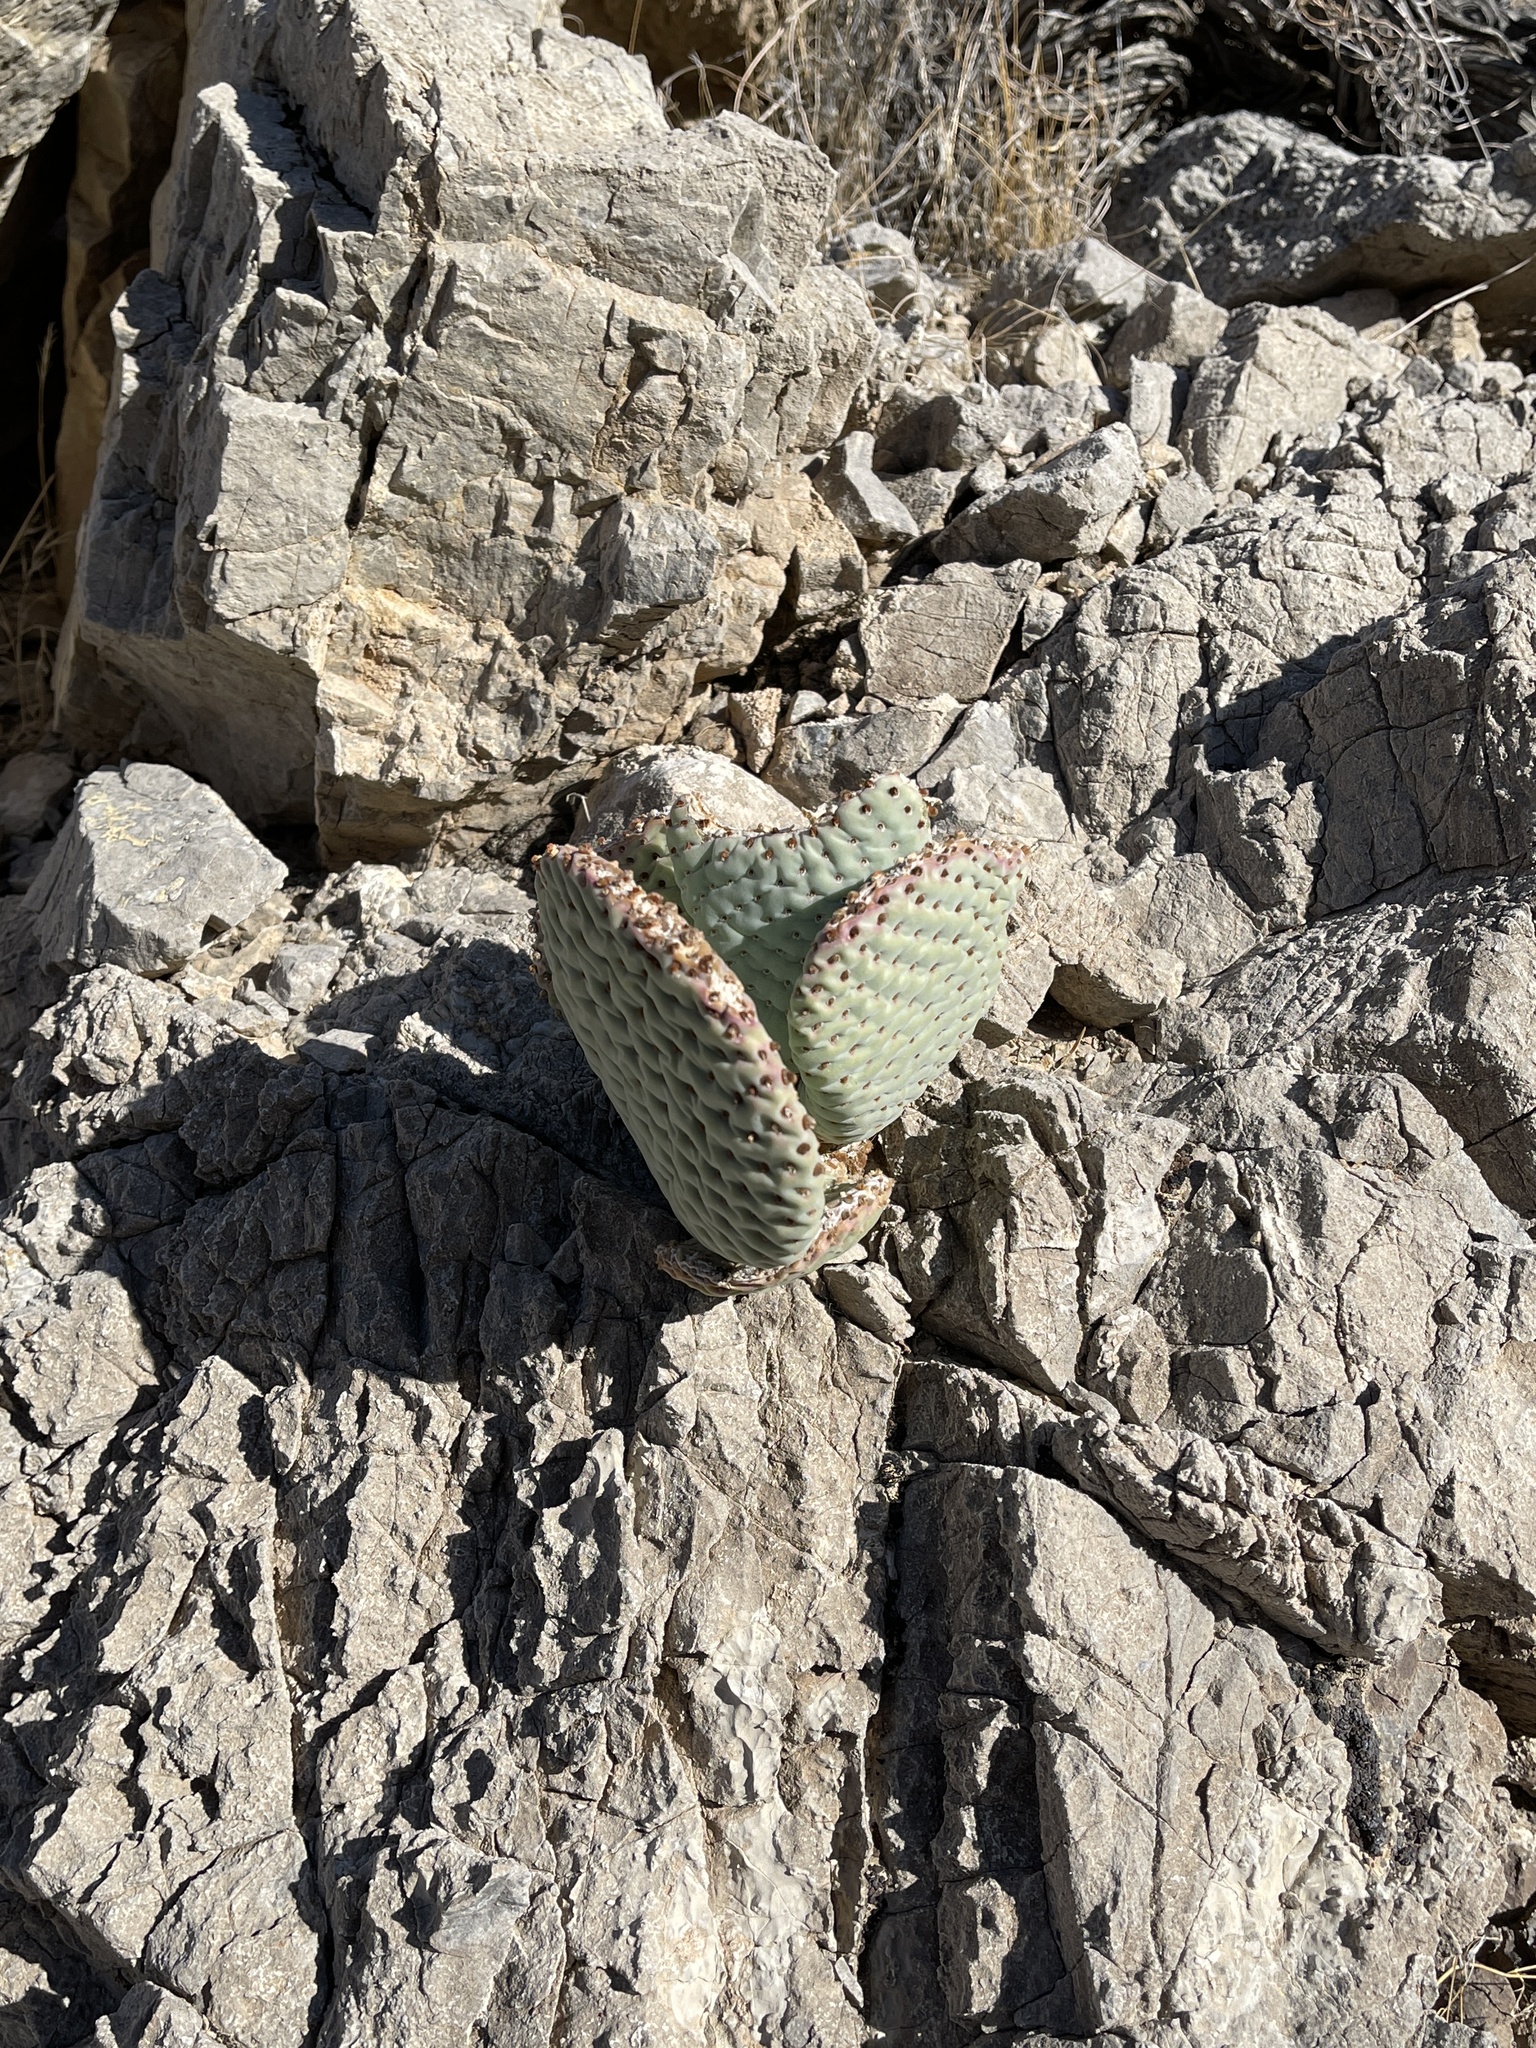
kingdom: Plantae
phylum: Tracheophyta
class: Magnoliopsida
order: Caryophyllales
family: Cactaceae
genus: Opuntia
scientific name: Opuntia basilaris
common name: Beavertail prickly-pear
